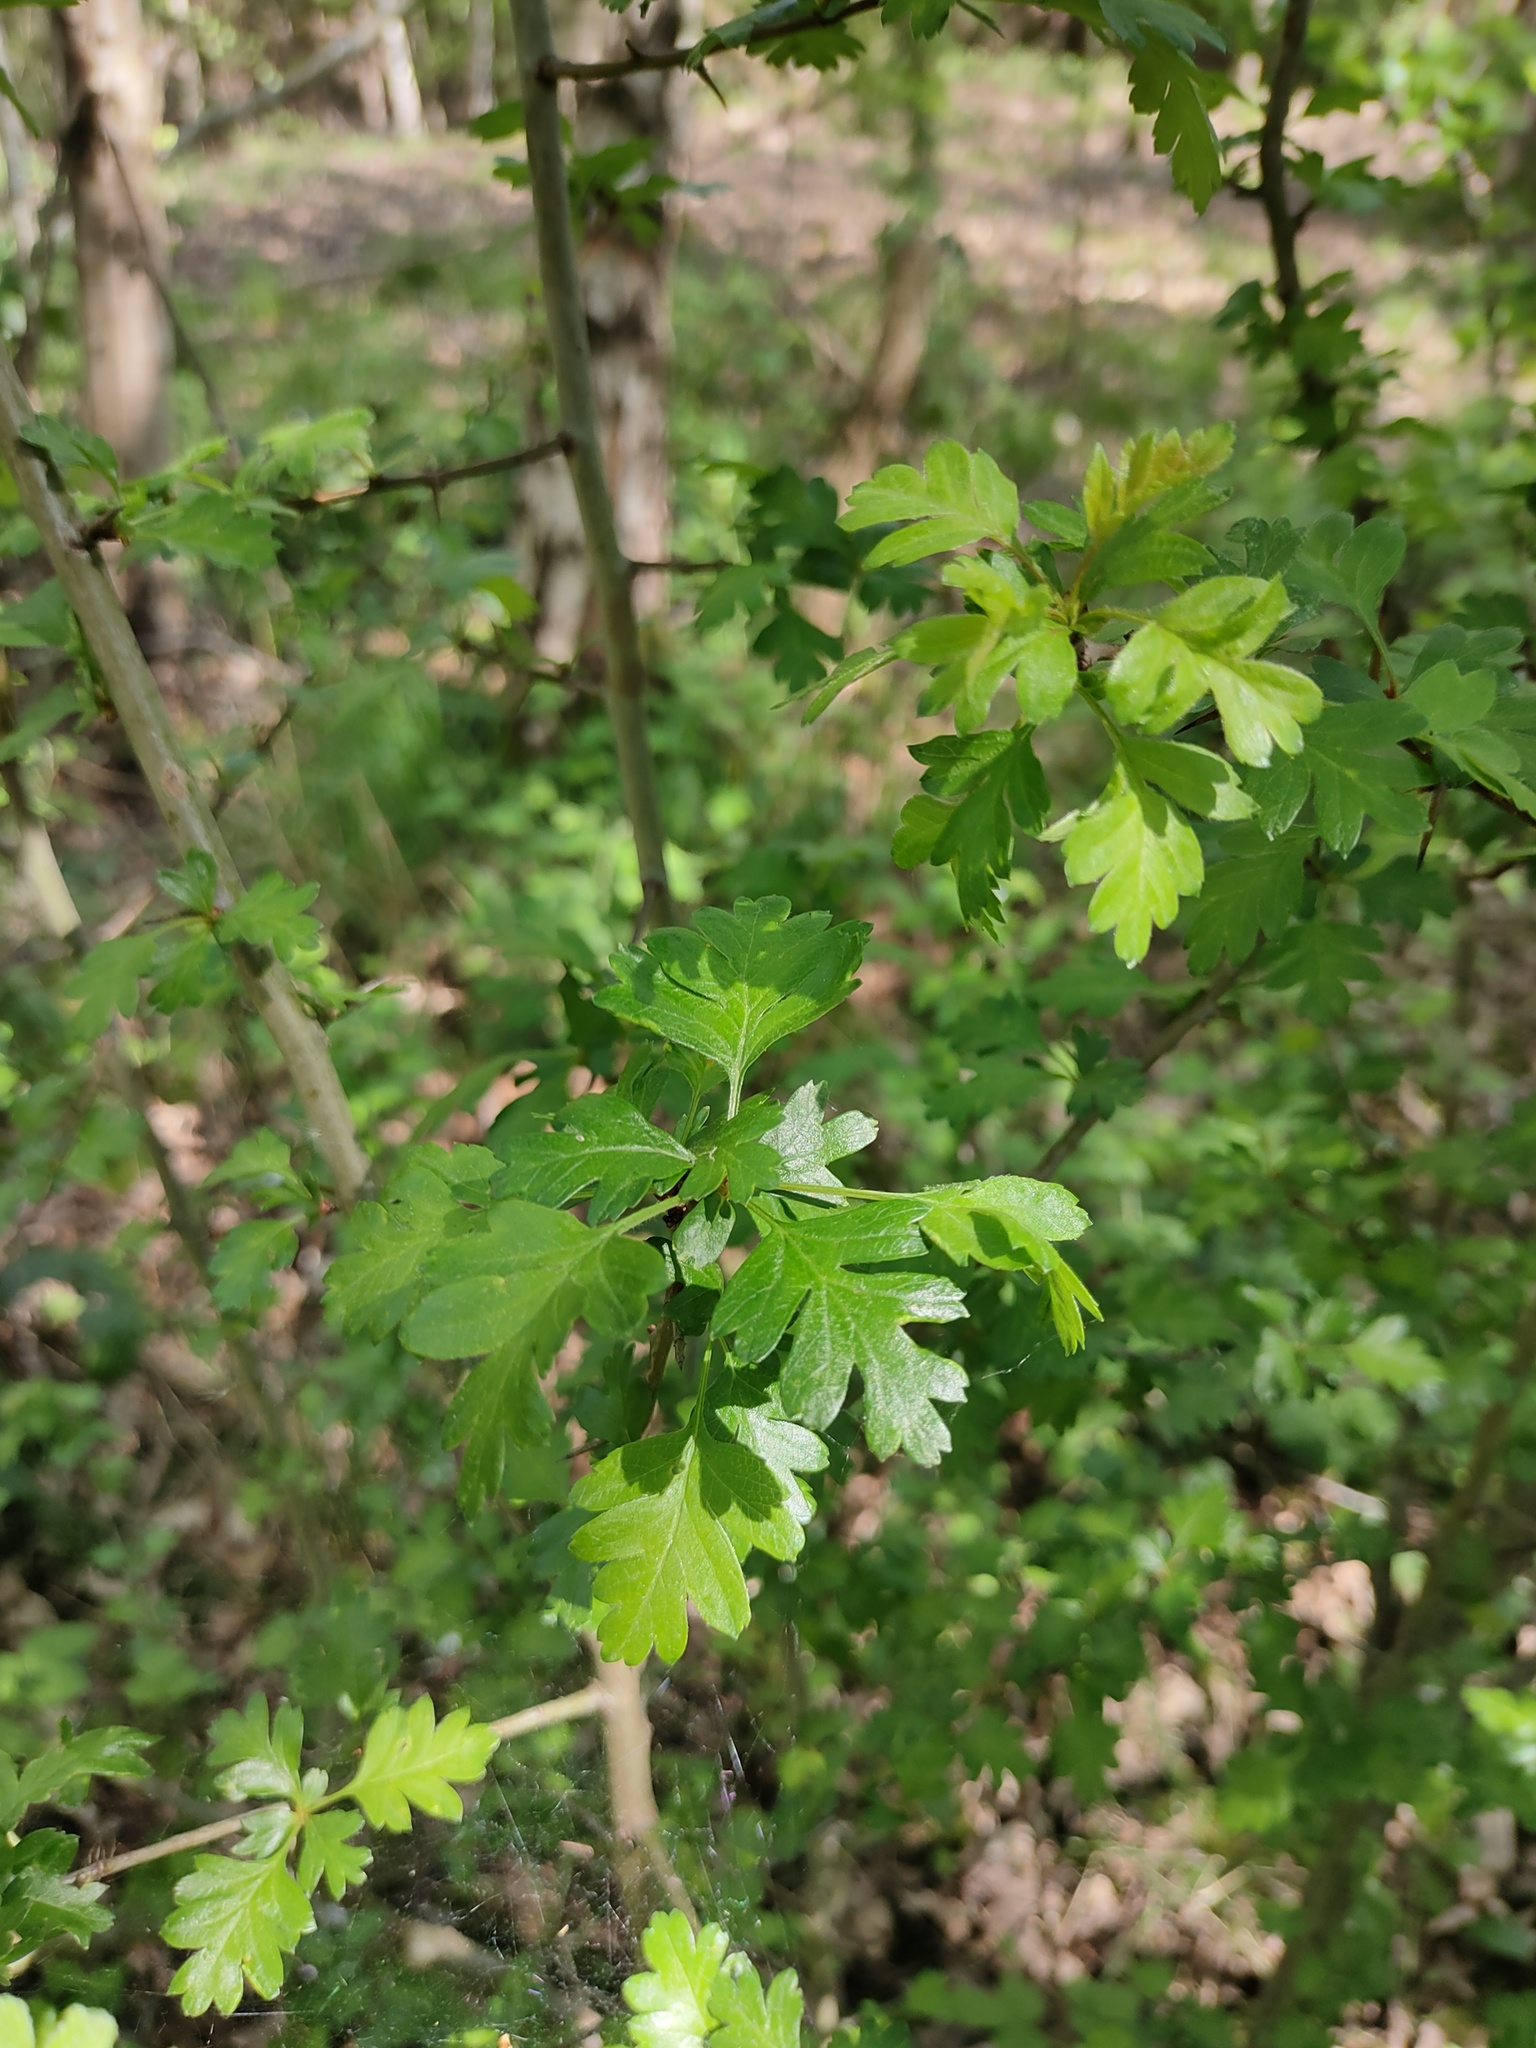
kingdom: Plantae
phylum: Tracheophyta
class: Magnoliopsida
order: Rosales
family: Rosaceae
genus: Crataegus
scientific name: Crataegus monogyna
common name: Hawthorn
